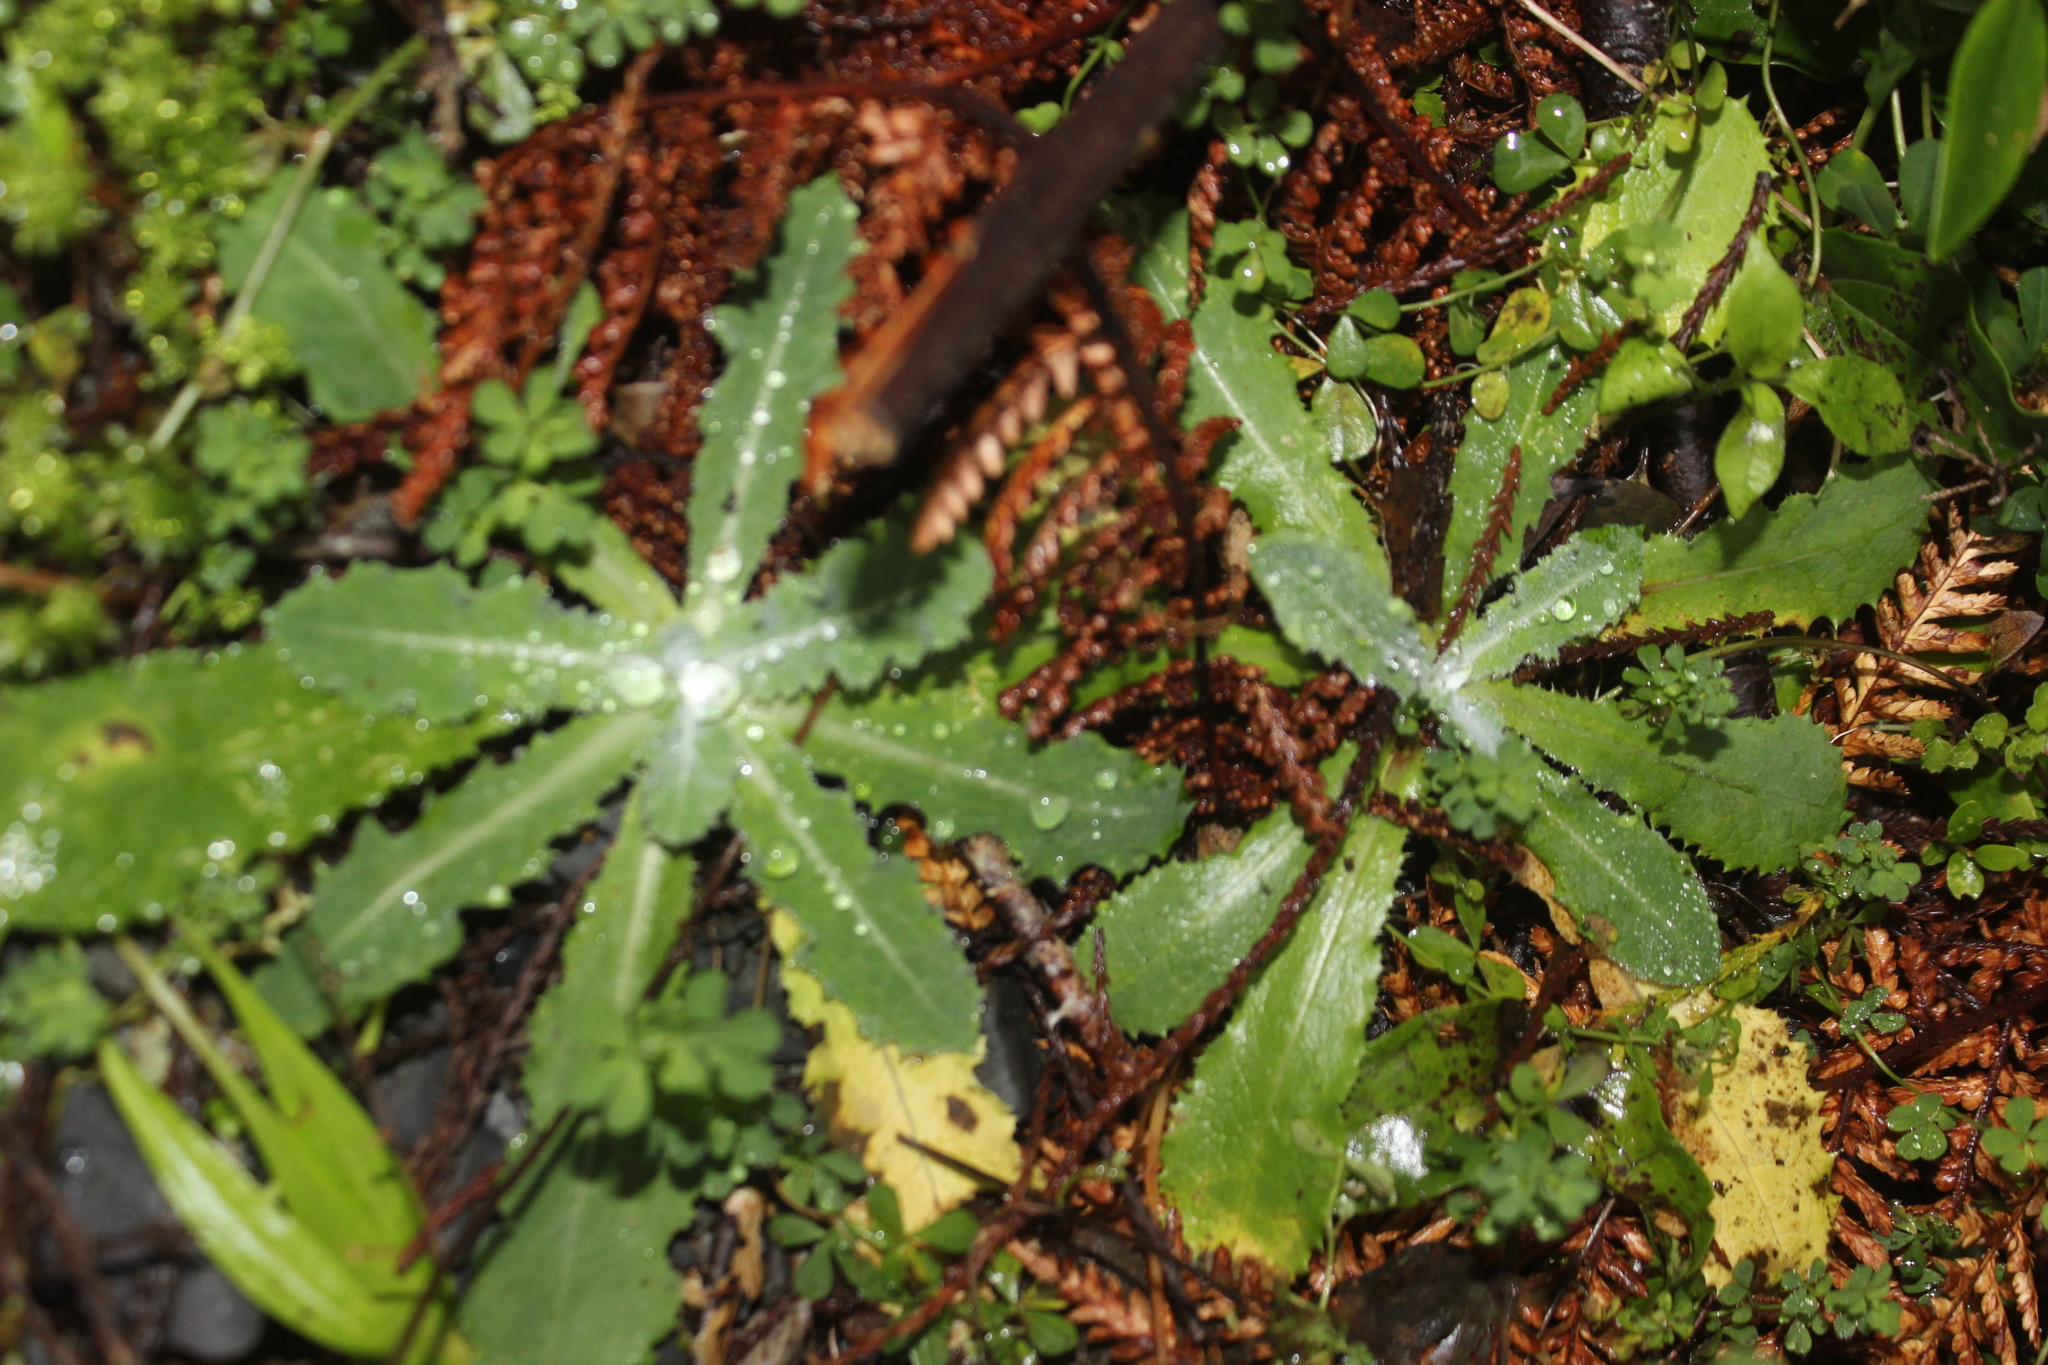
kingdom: Plantae
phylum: Tracheophyta
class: Magnoliopsida
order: Asterales
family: Asteraceae
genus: Sonchus
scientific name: Sonchus oleraceus
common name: Common sowthistle
